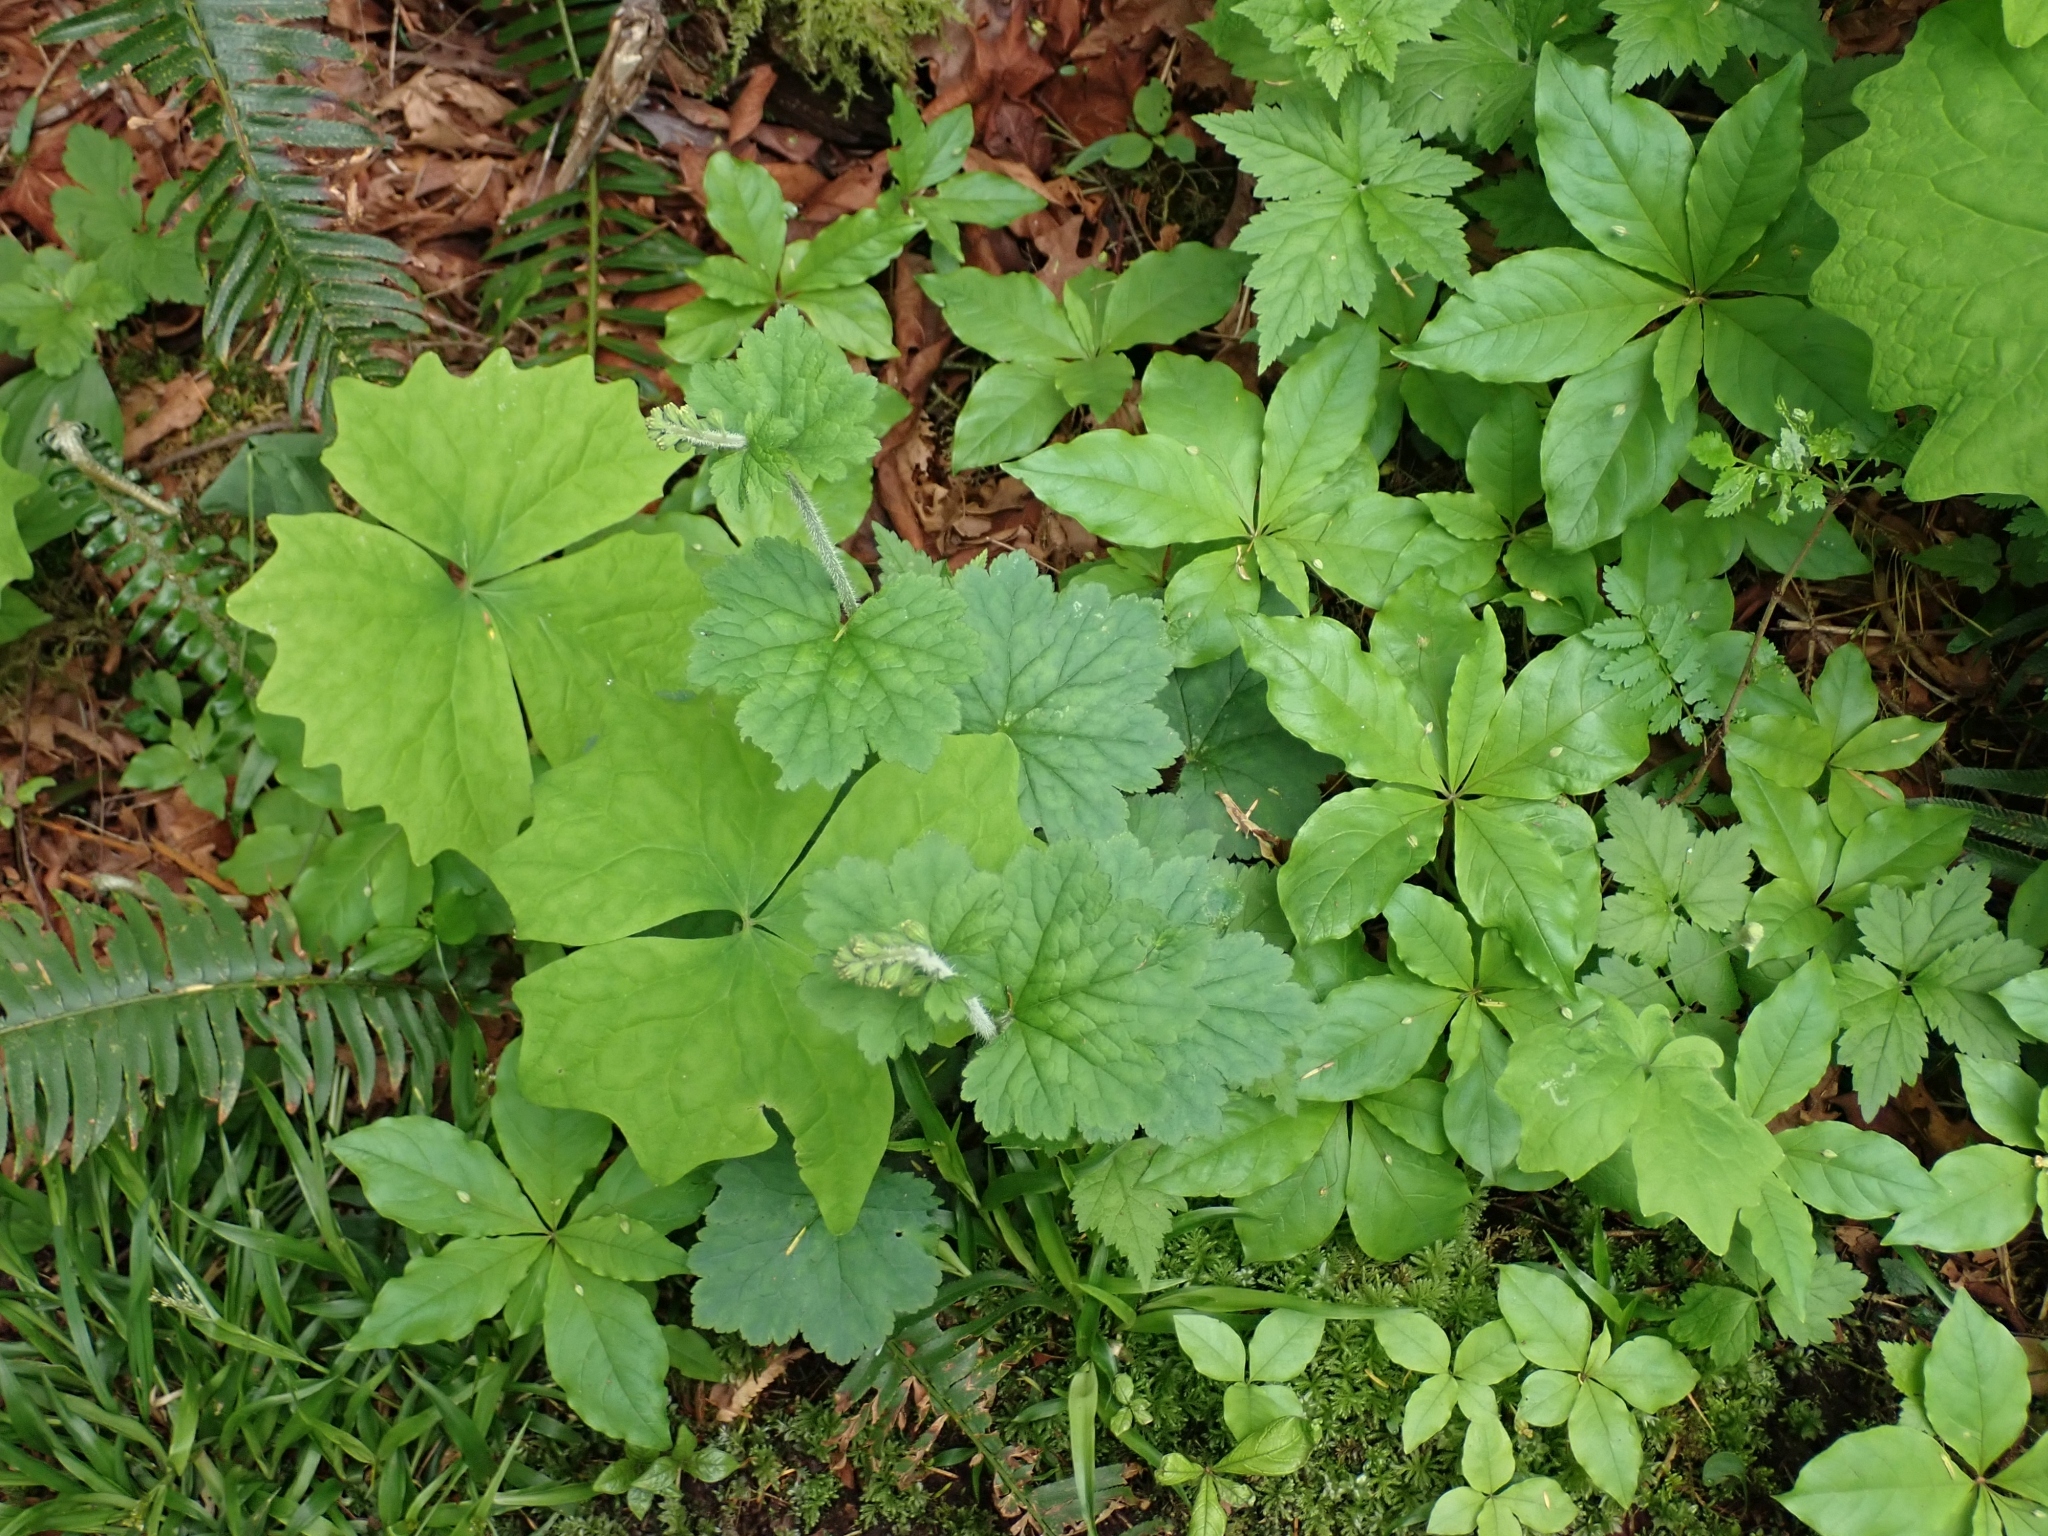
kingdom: Plantae
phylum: Tracheophyta
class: Magnoliopsida
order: Saxifragales
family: Saxifragaceae
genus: Tellima
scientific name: Tellima grandiflora
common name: Fringecups
